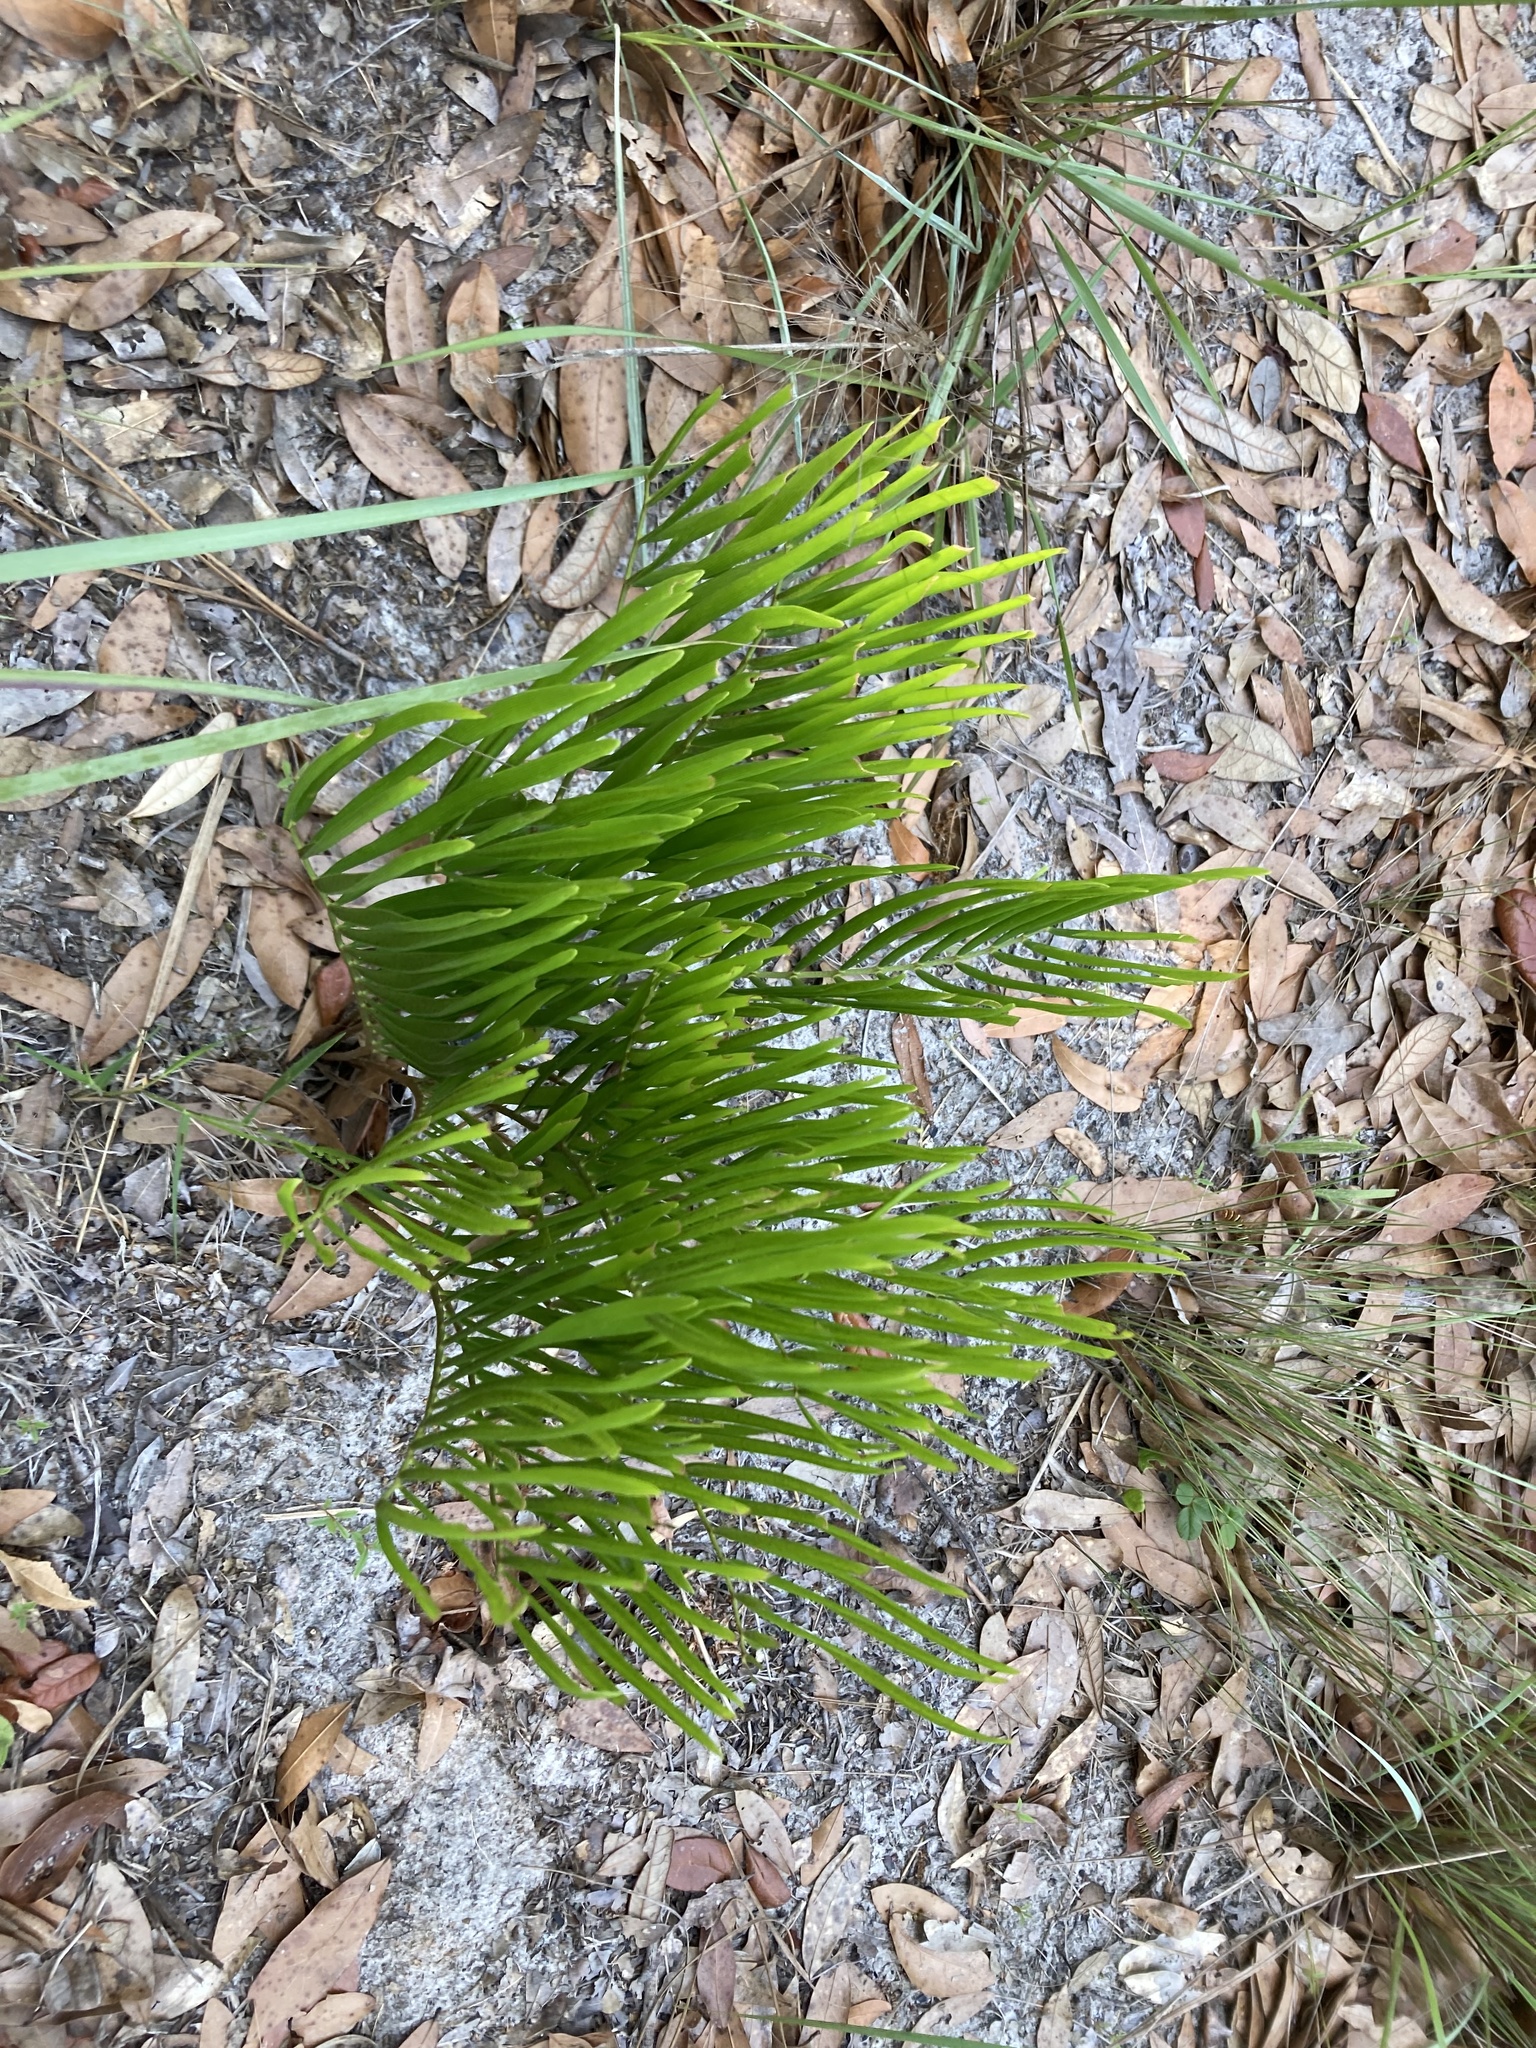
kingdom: Plantae
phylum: Tracheophyta
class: Cycadopsida
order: Cycadales
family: Zamiaceae
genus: Zamia
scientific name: Zamia integrifolia
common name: Florida arrowroot
